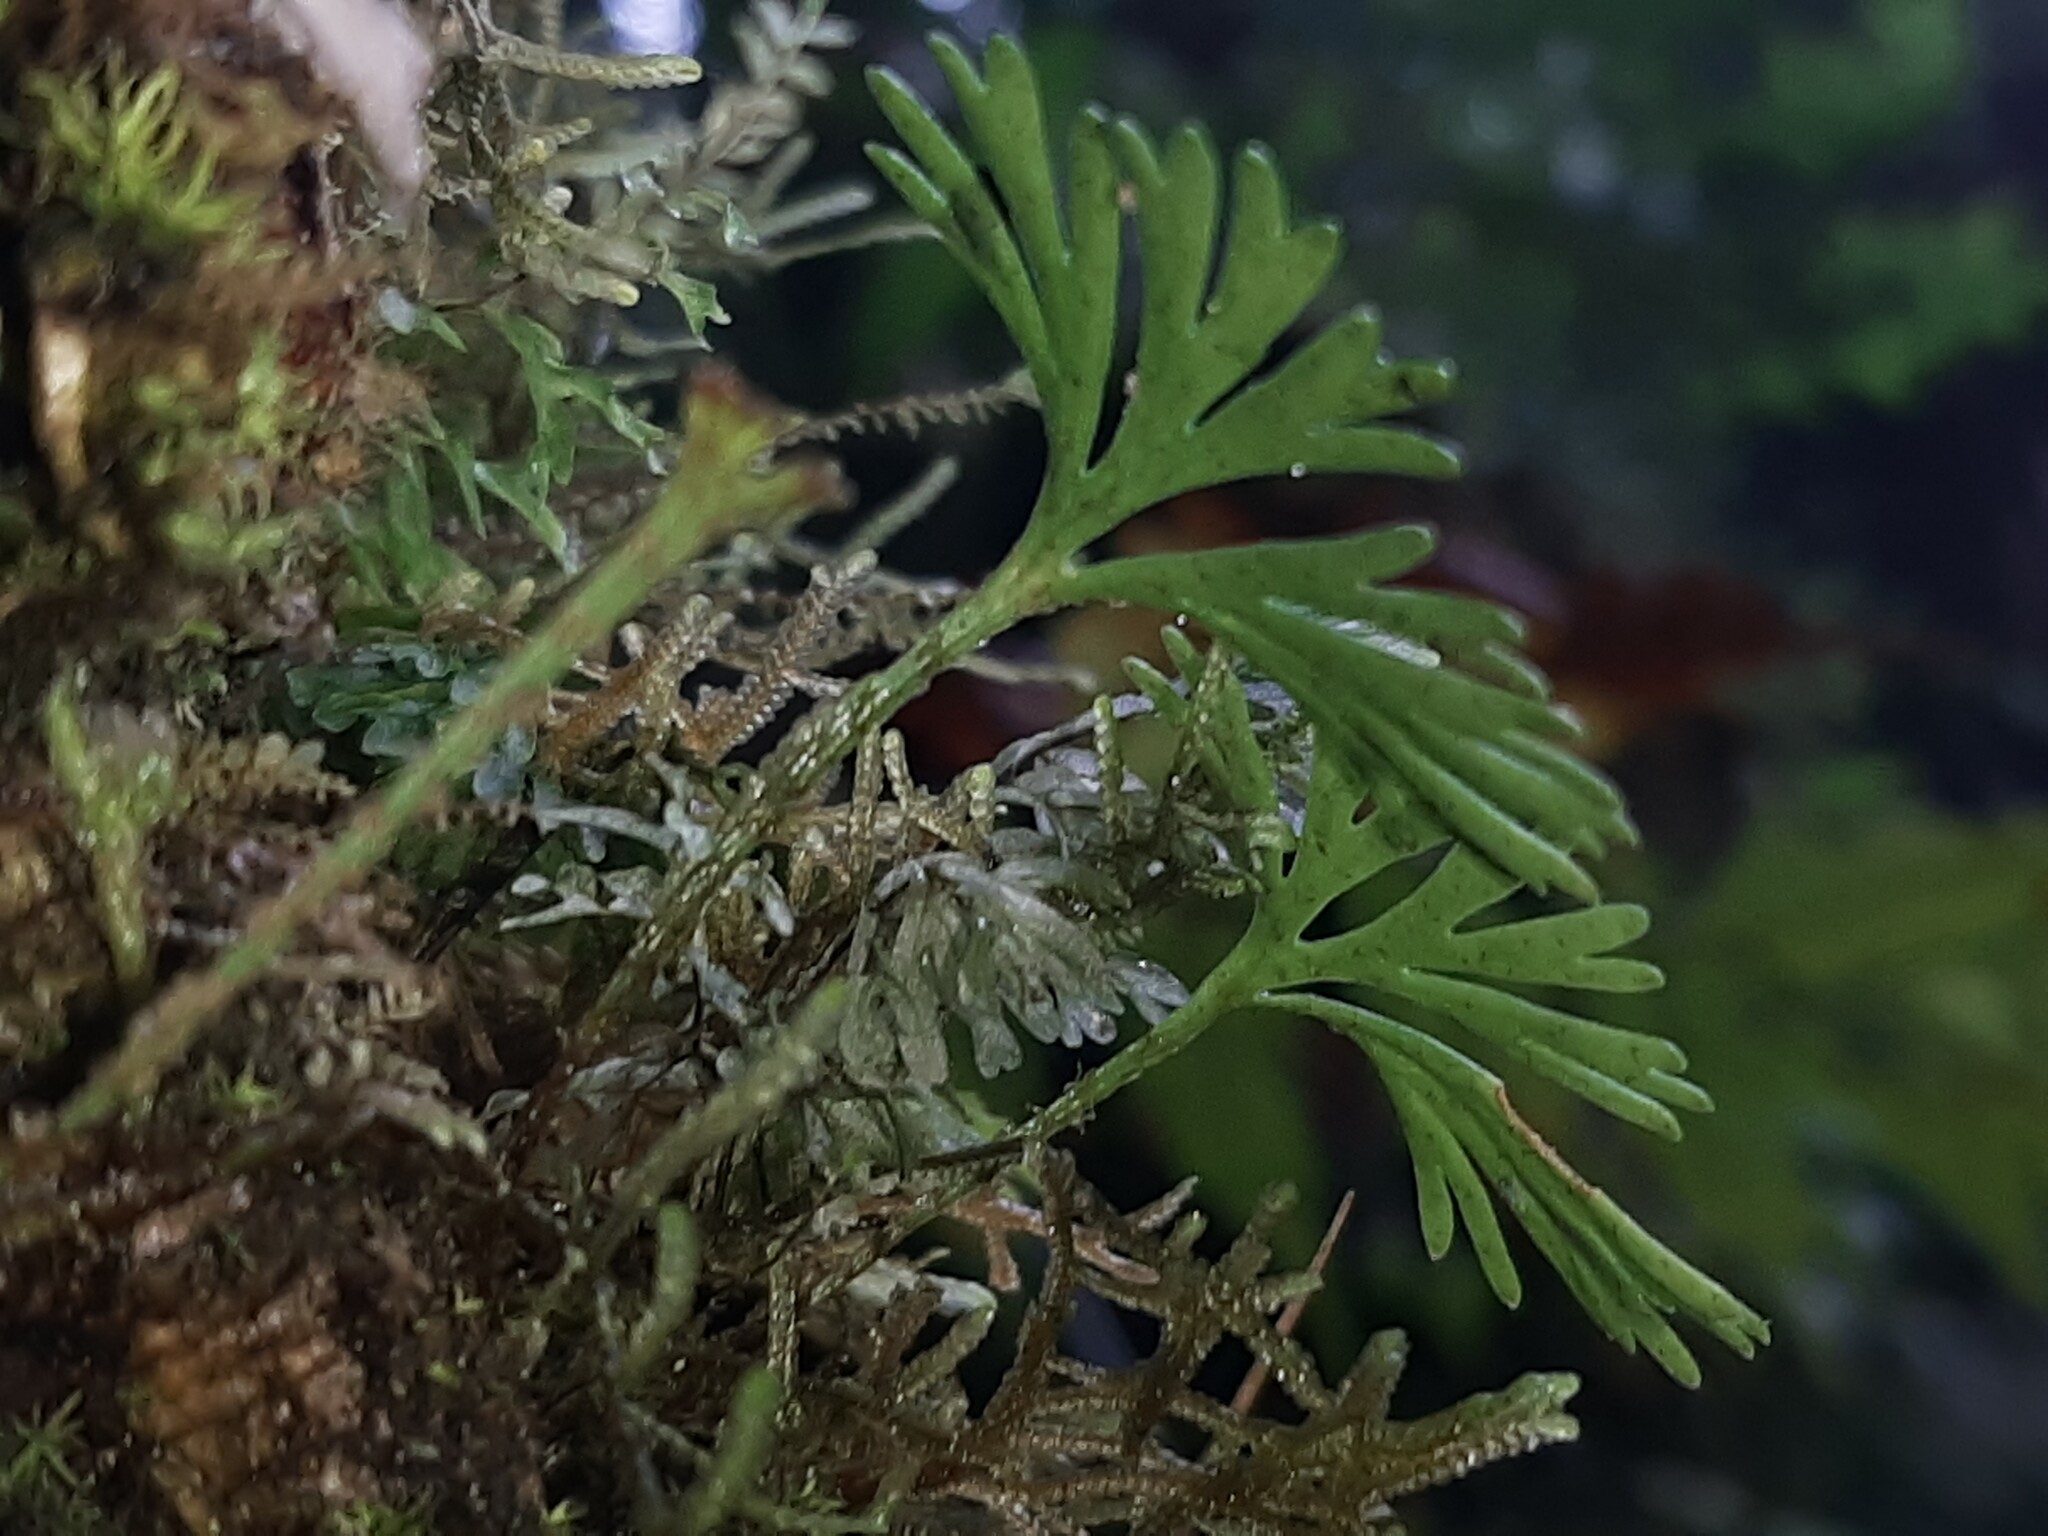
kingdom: Plantae
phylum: Tracheophyta
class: Polypodiopsida
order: Polypodiales
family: Dryopteridaceae
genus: Elaphoglossum
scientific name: Elaphoglossum peltatum
